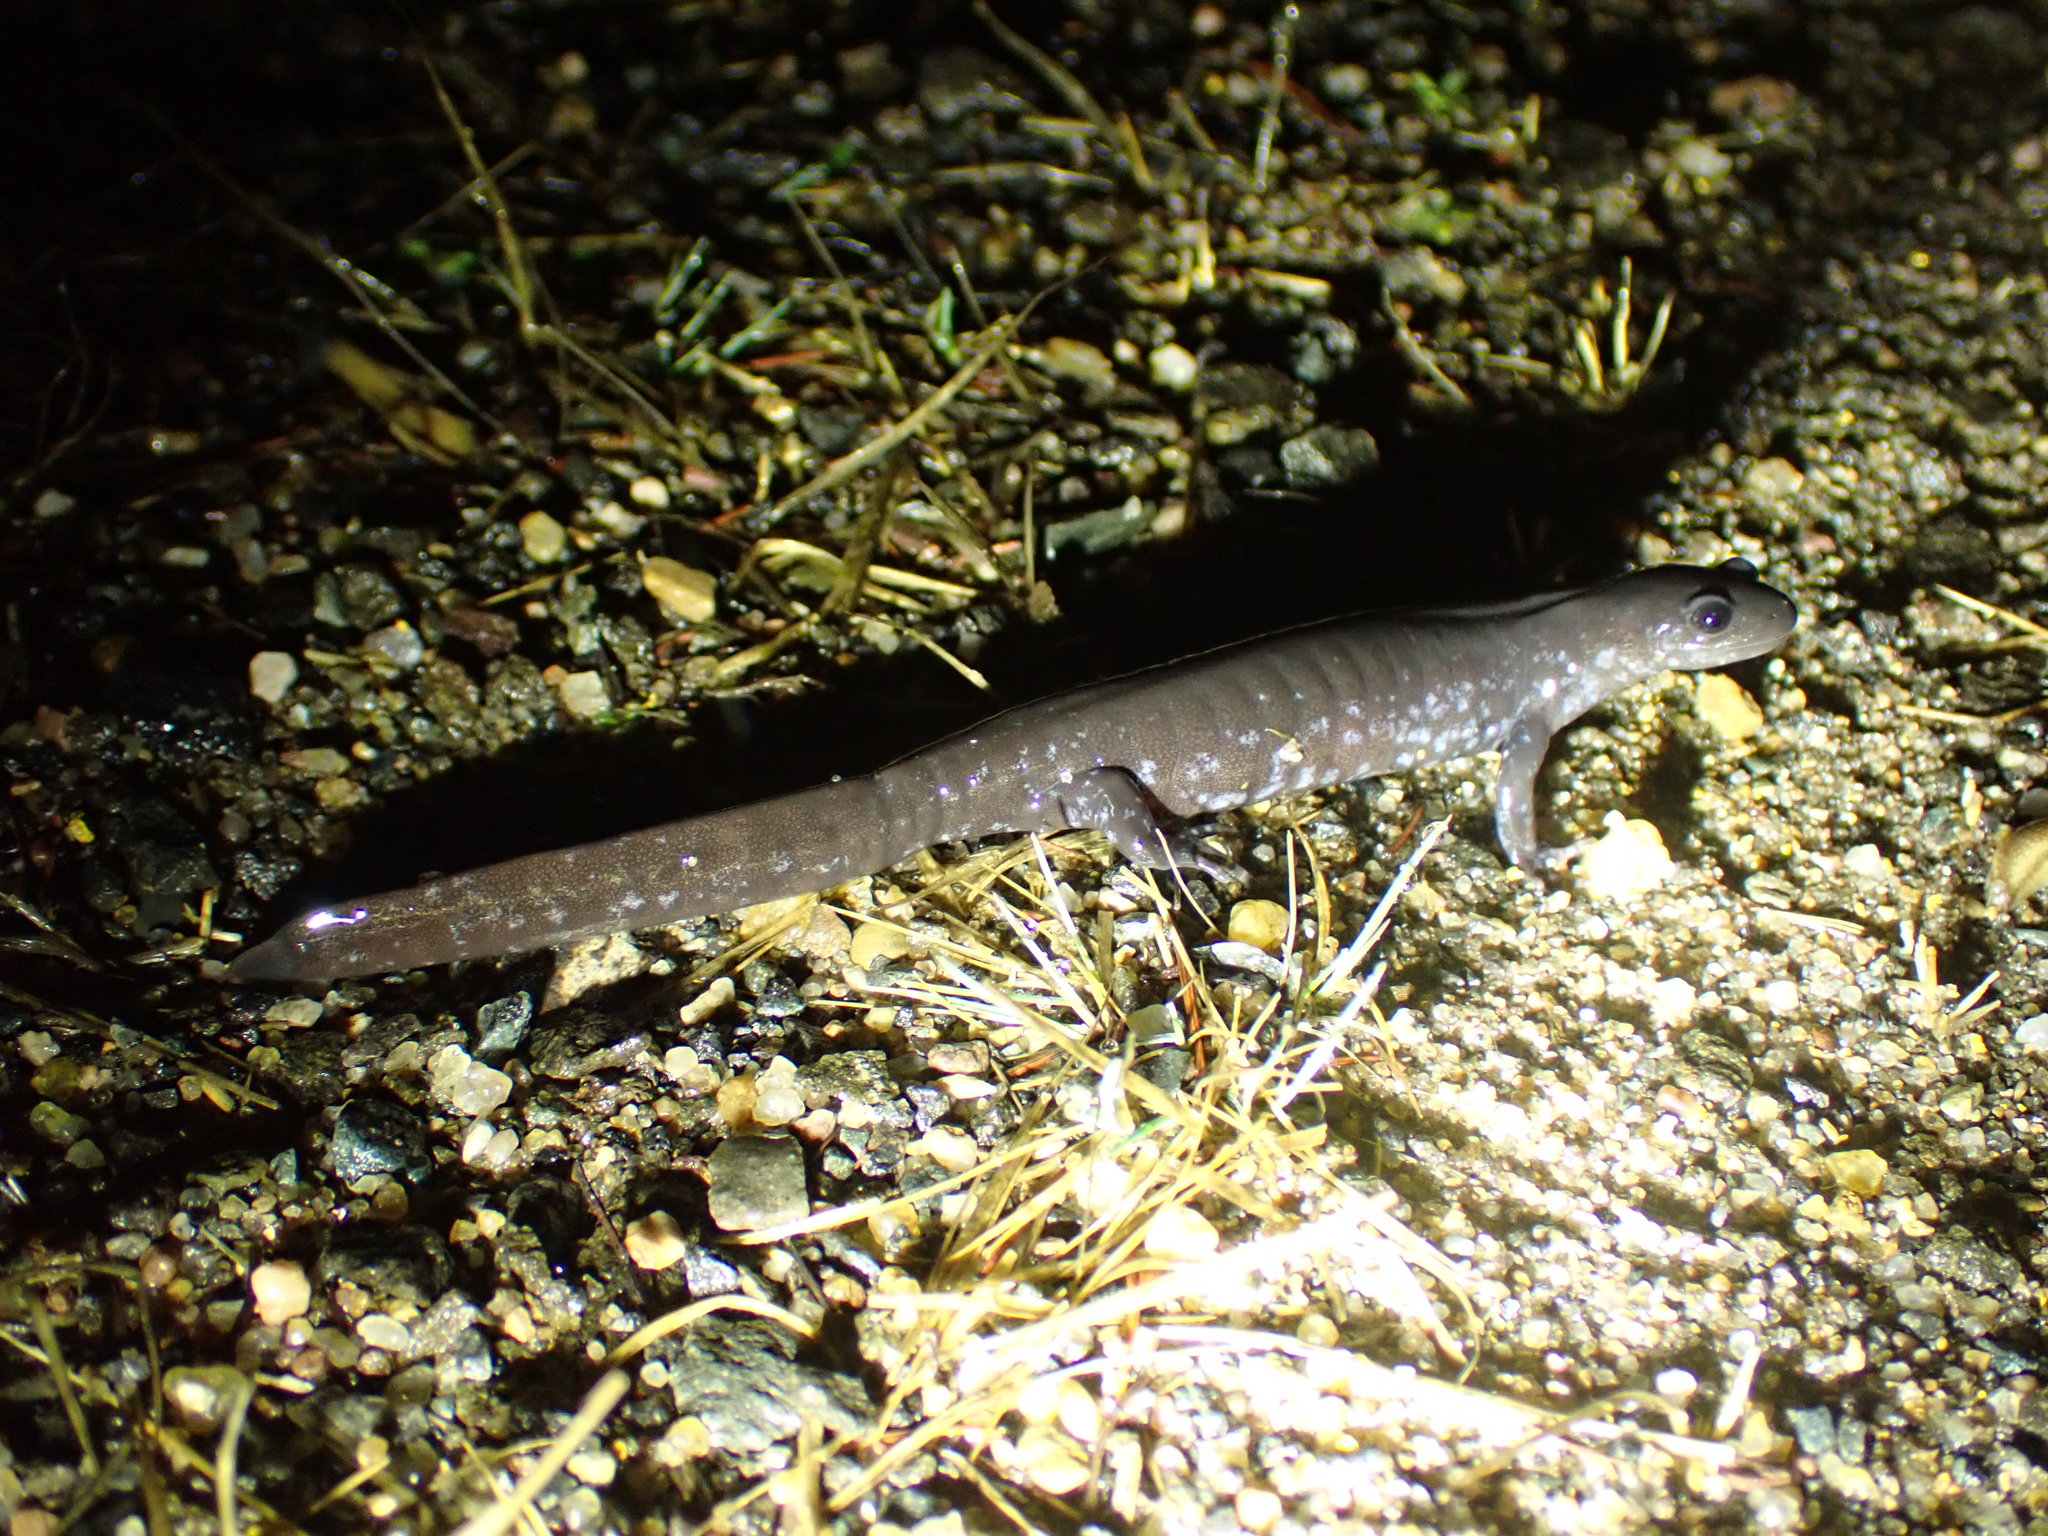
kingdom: Animalia
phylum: Chordata
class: Amphibia
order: Caudata
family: Ambystomatidae
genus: Ambystoma
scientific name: Ambystoma laterale
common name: Blue-spotted salamander
